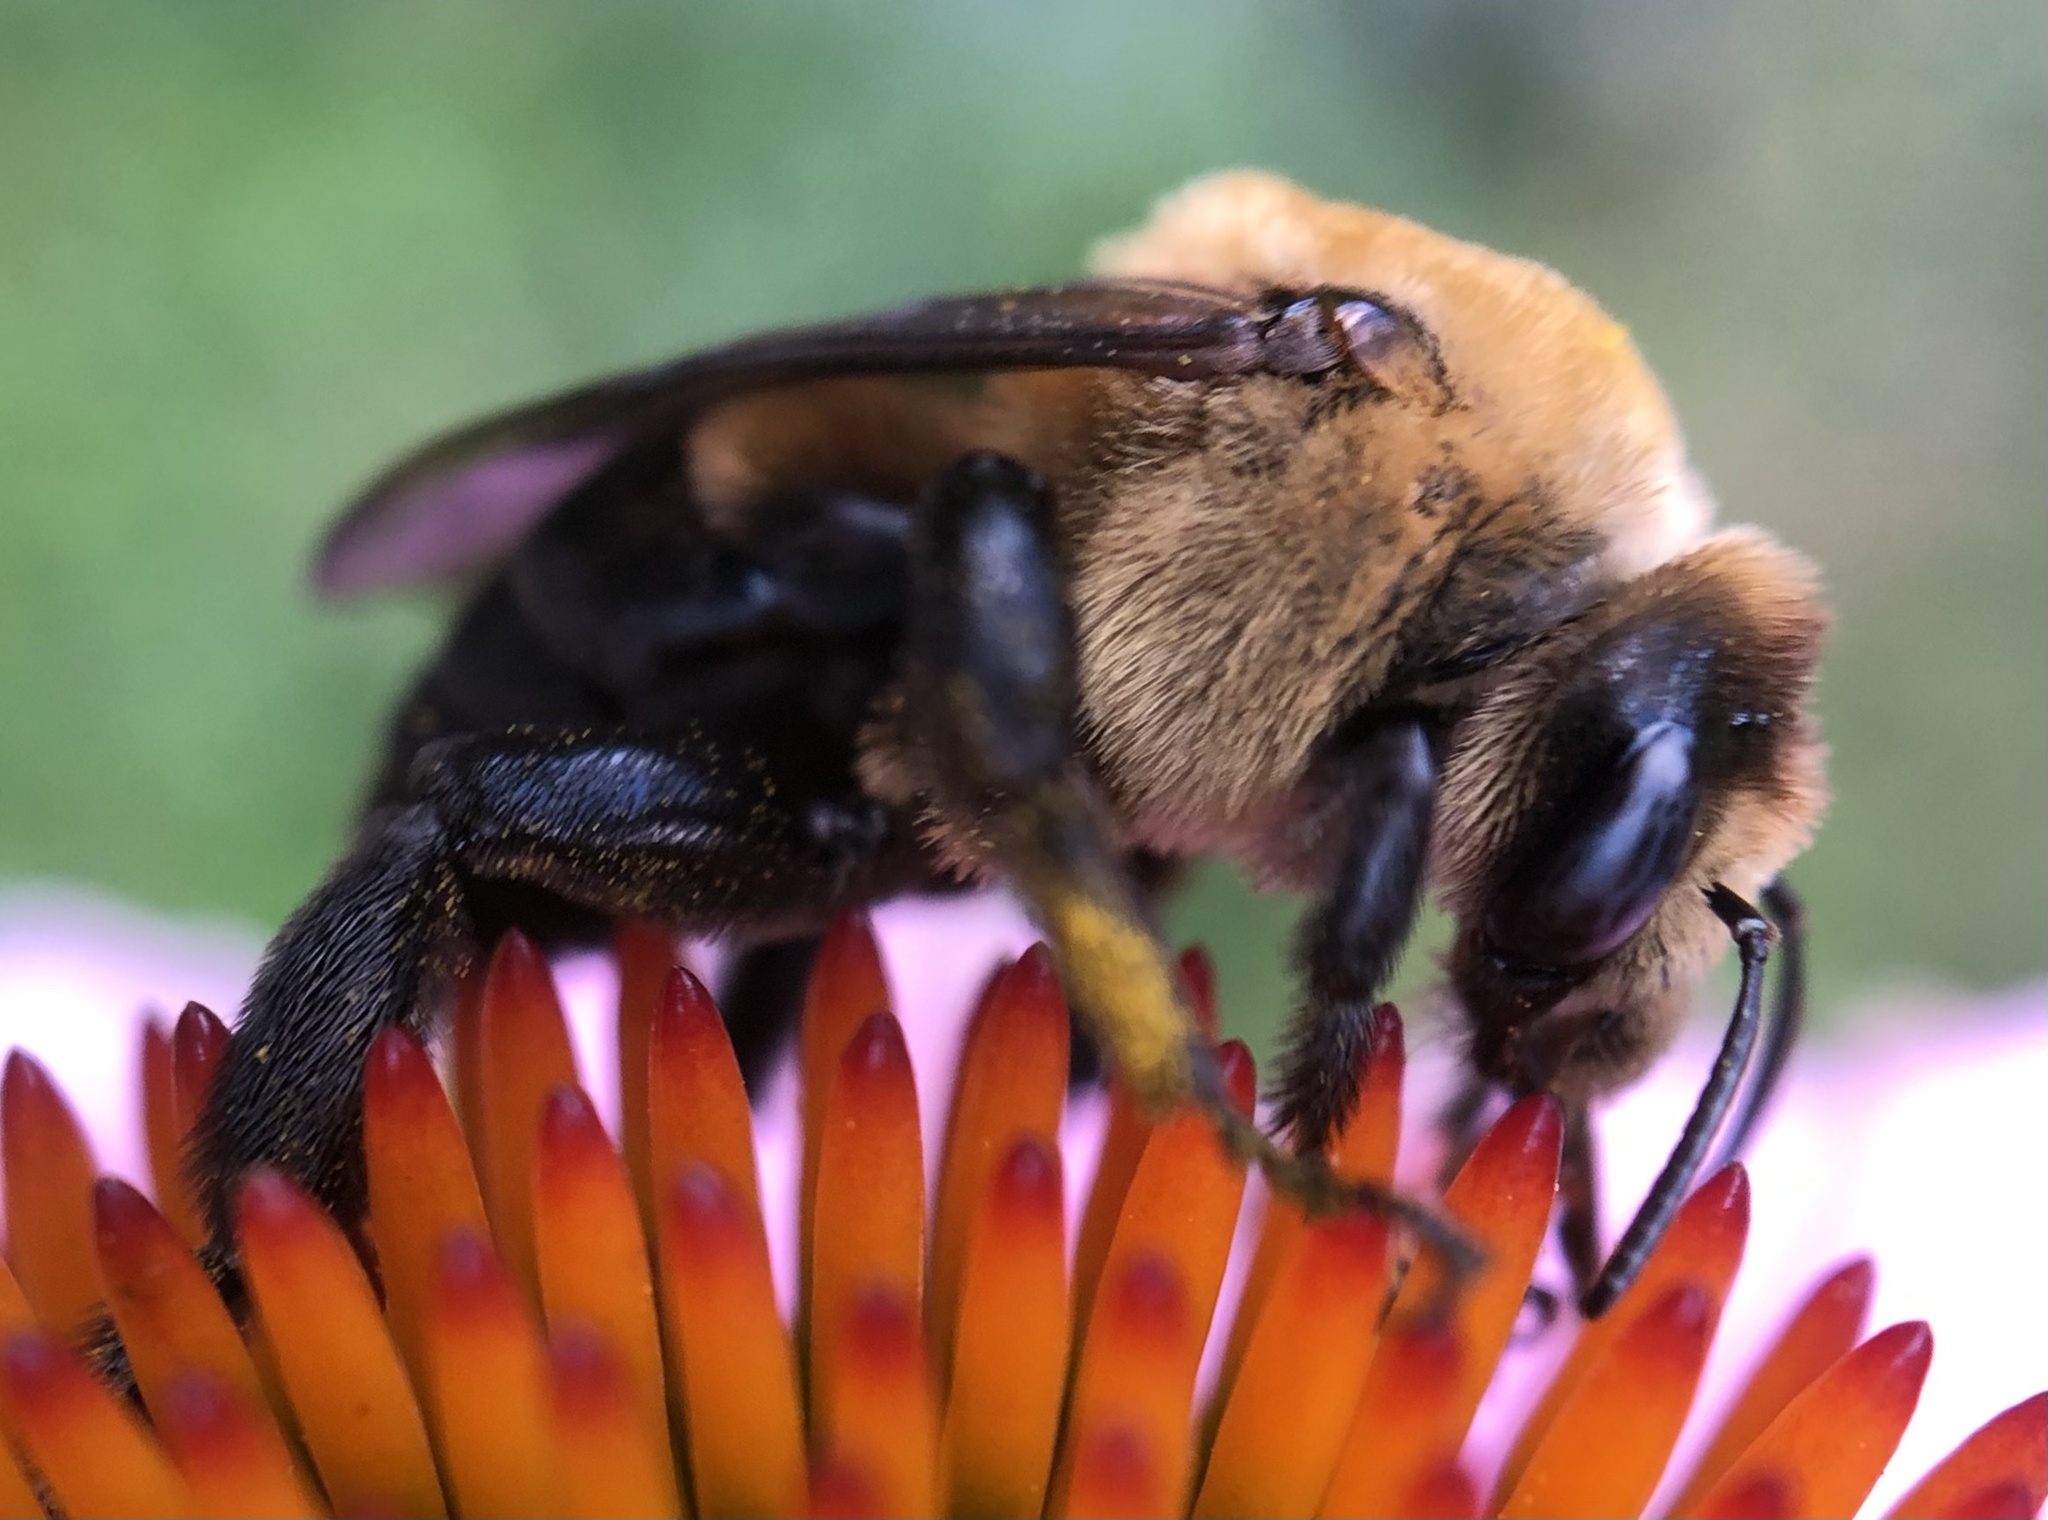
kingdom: Animalia
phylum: Arthropoda
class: Insecta
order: Hymenoptera
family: Apidae
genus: Ptilothrix
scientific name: Ptilothrix bombiformis
